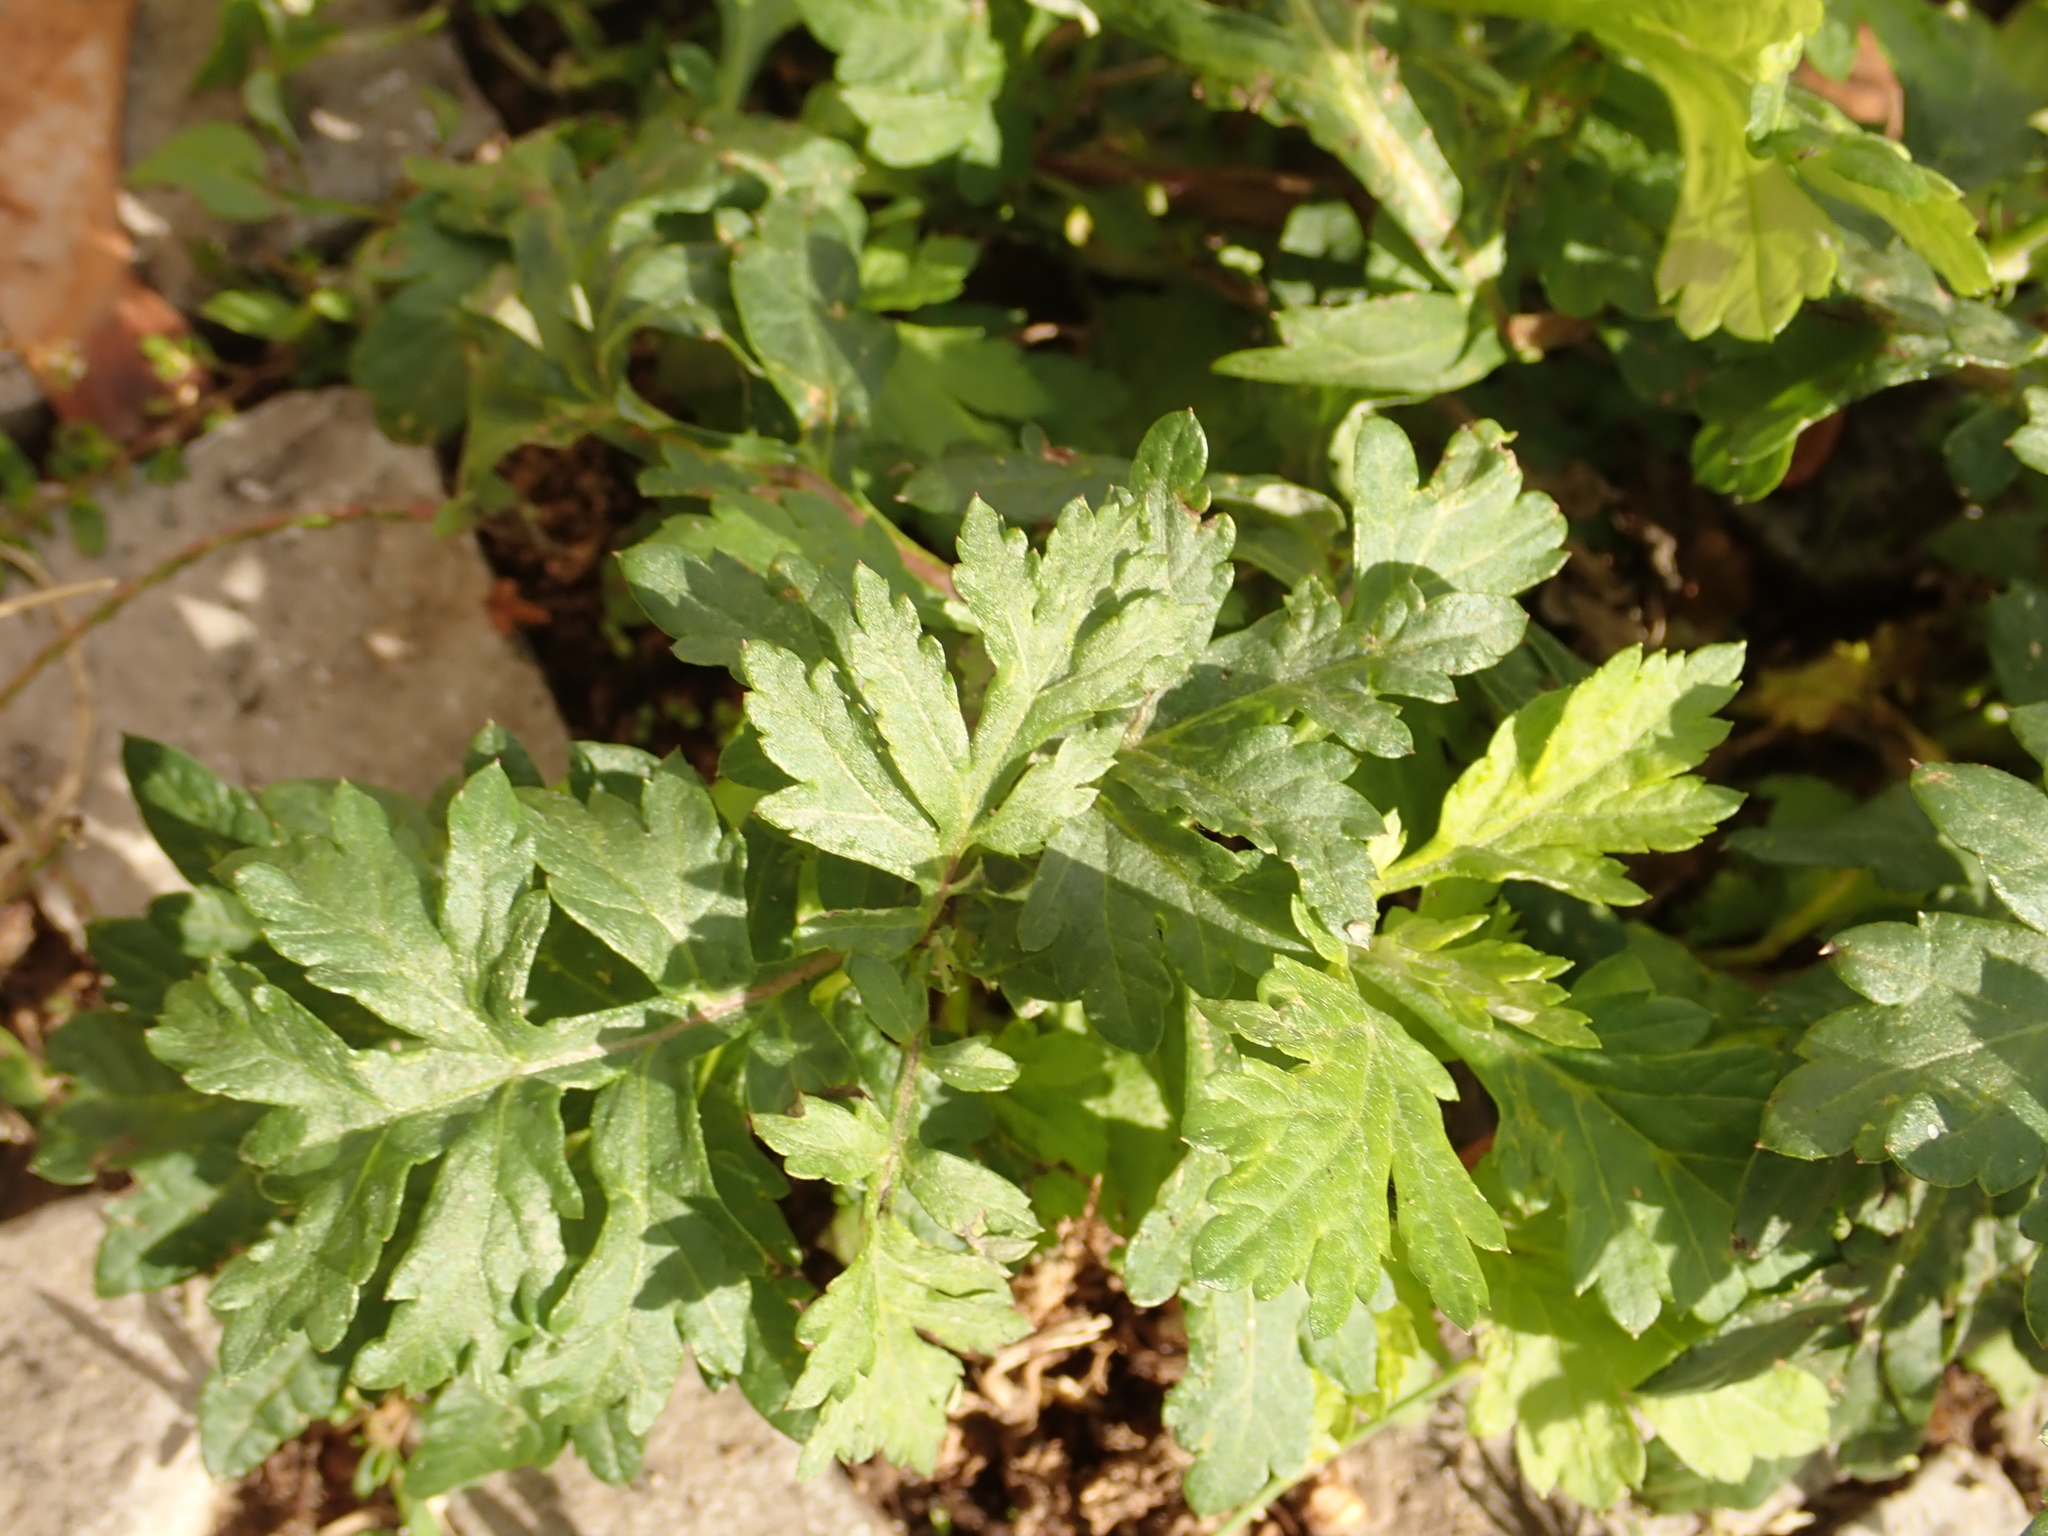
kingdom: Plantae
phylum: Tracheophyta
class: Magnoliopsida
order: Asterales
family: Asteraceae
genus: Artemisia
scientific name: Artemisia vulgaris
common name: Mugwort
